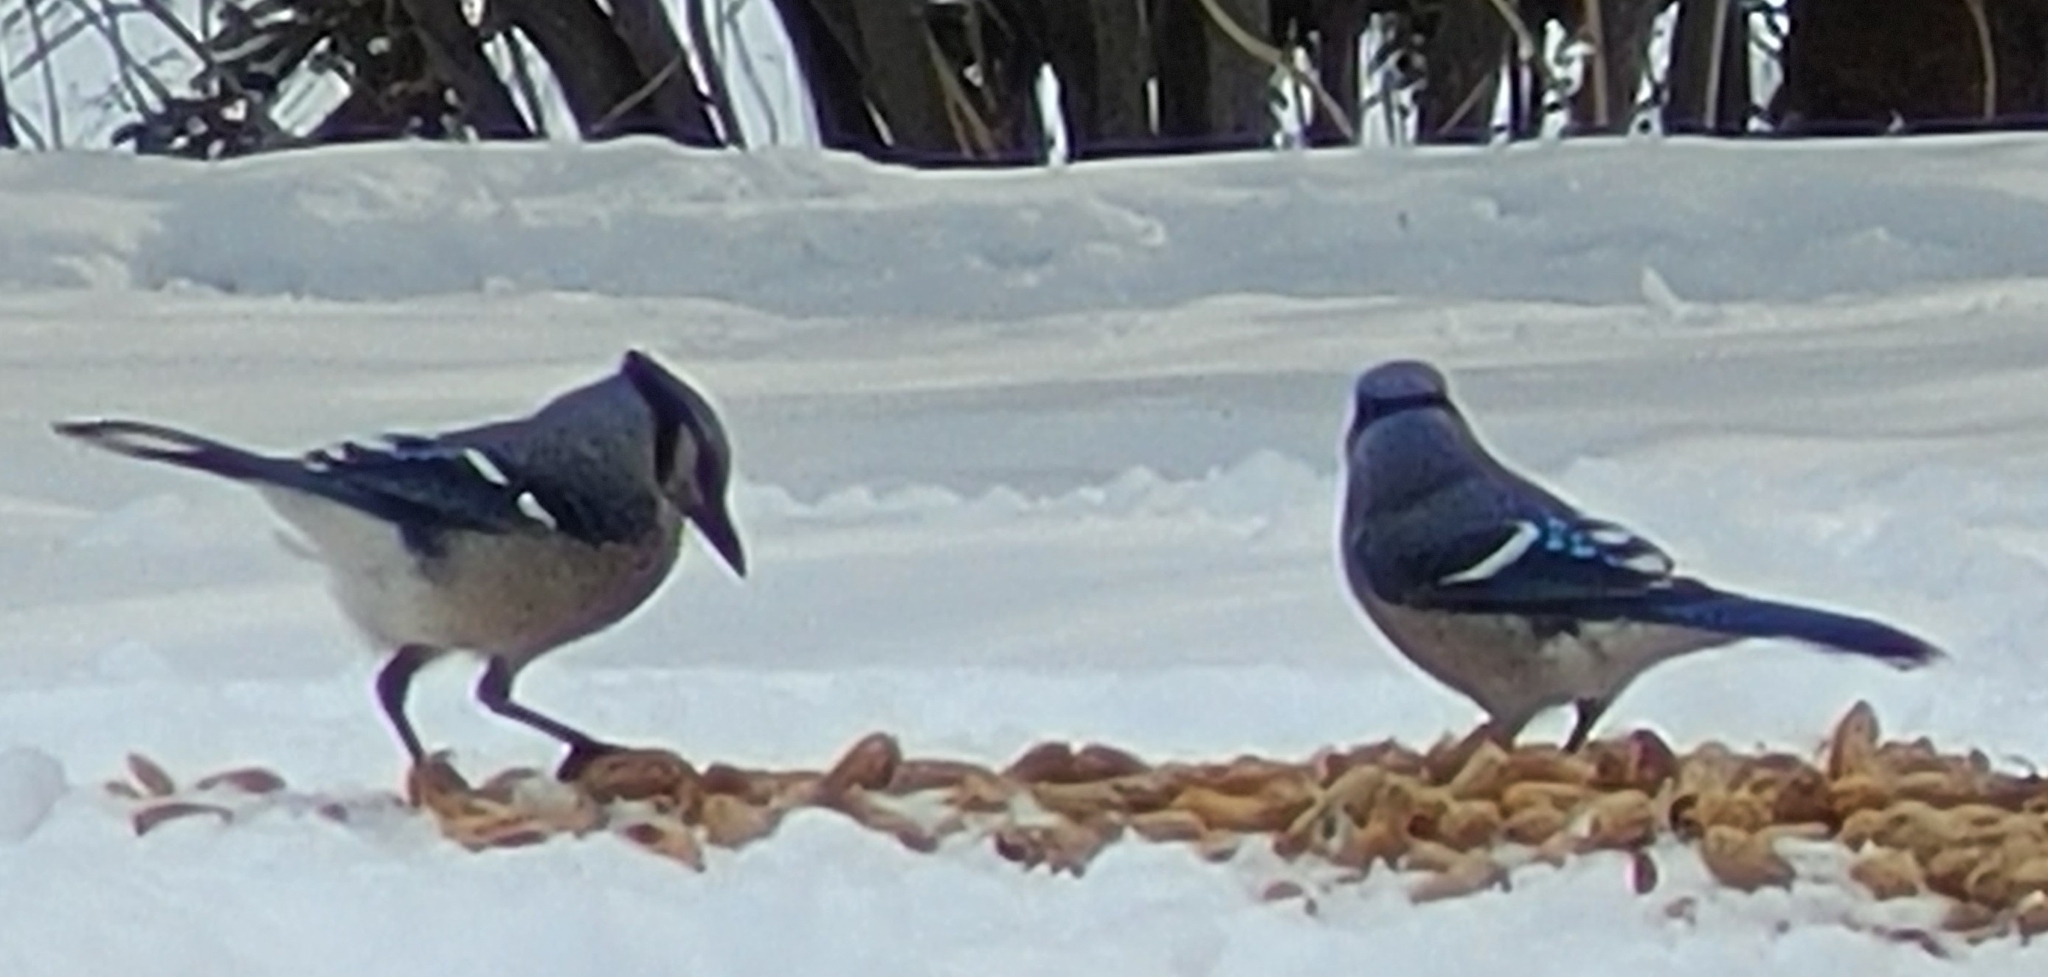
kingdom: Animalia
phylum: Chordata
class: Aves
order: Passeriformes
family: Corvidae
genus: Cyanocitta
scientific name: Cyanocitta cristata
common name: Blue jay
